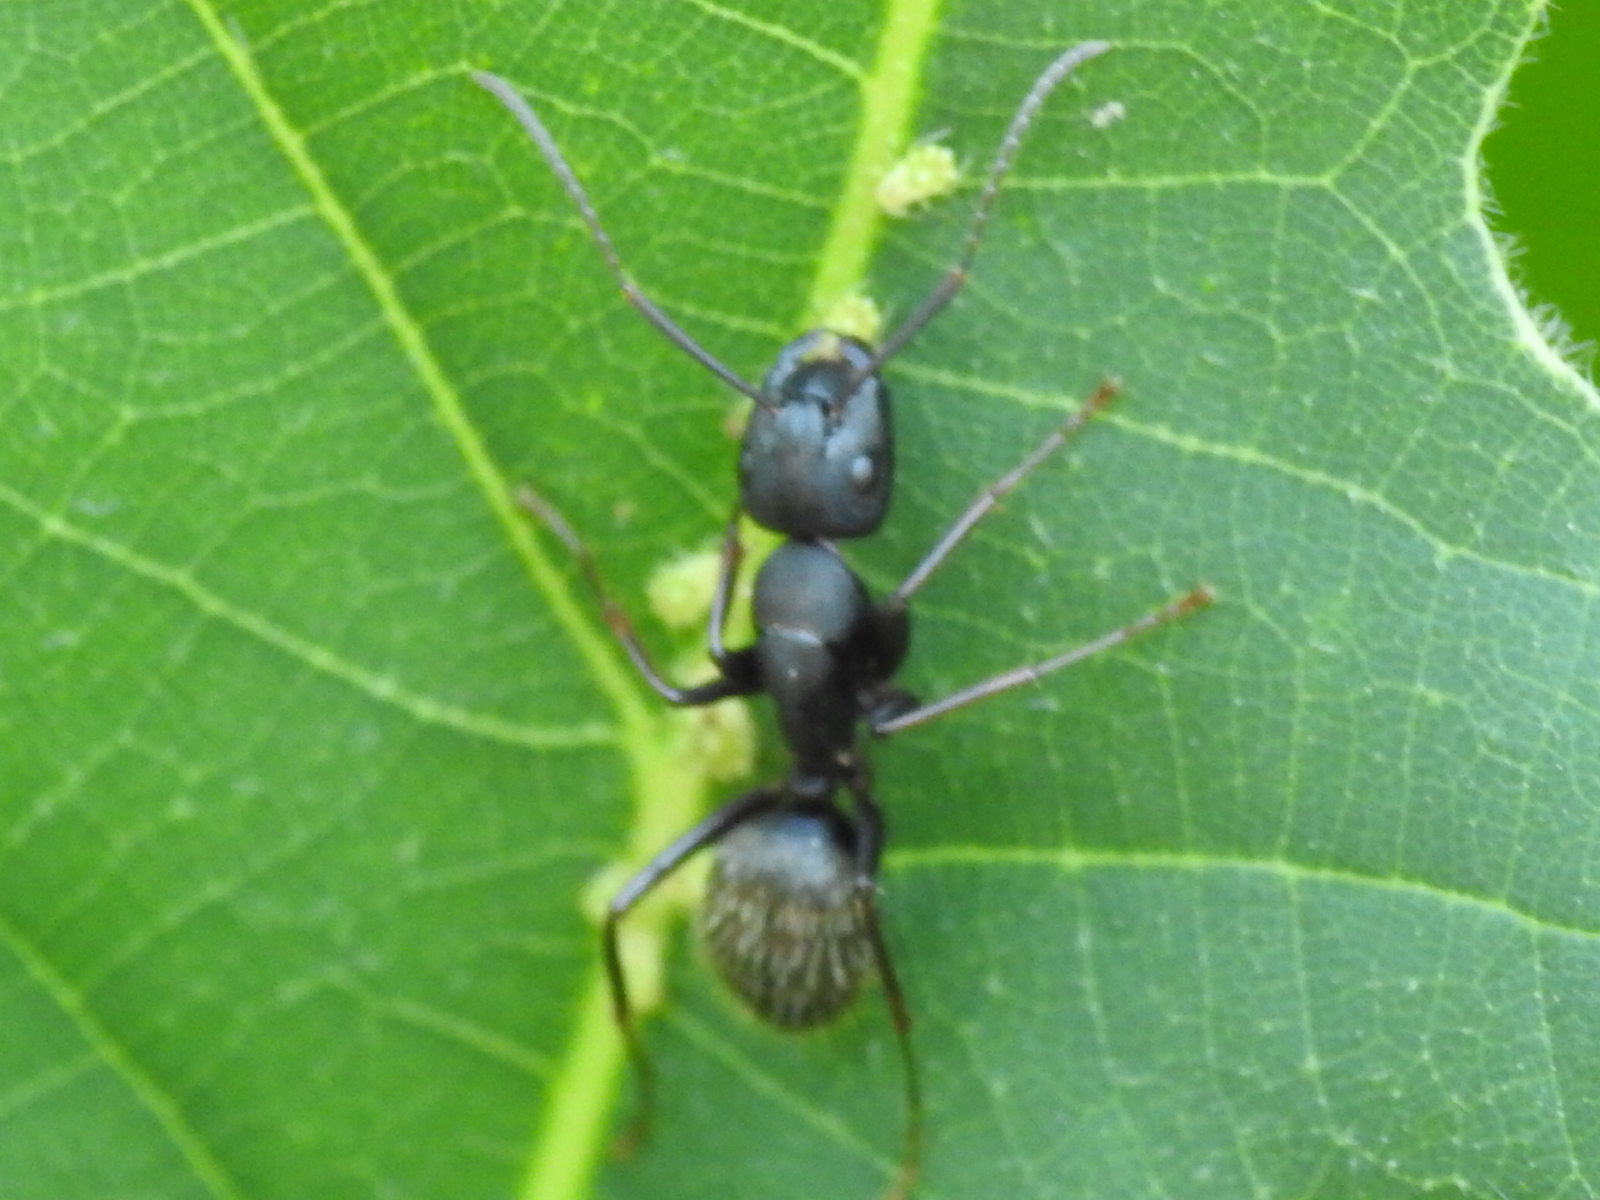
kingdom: Animalia
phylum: Arthropoda
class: Insecta
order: Hymenoptera
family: Formicidae
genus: Camponotus
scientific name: Camponotus pennsylvanicus
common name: Black carpenter ant
